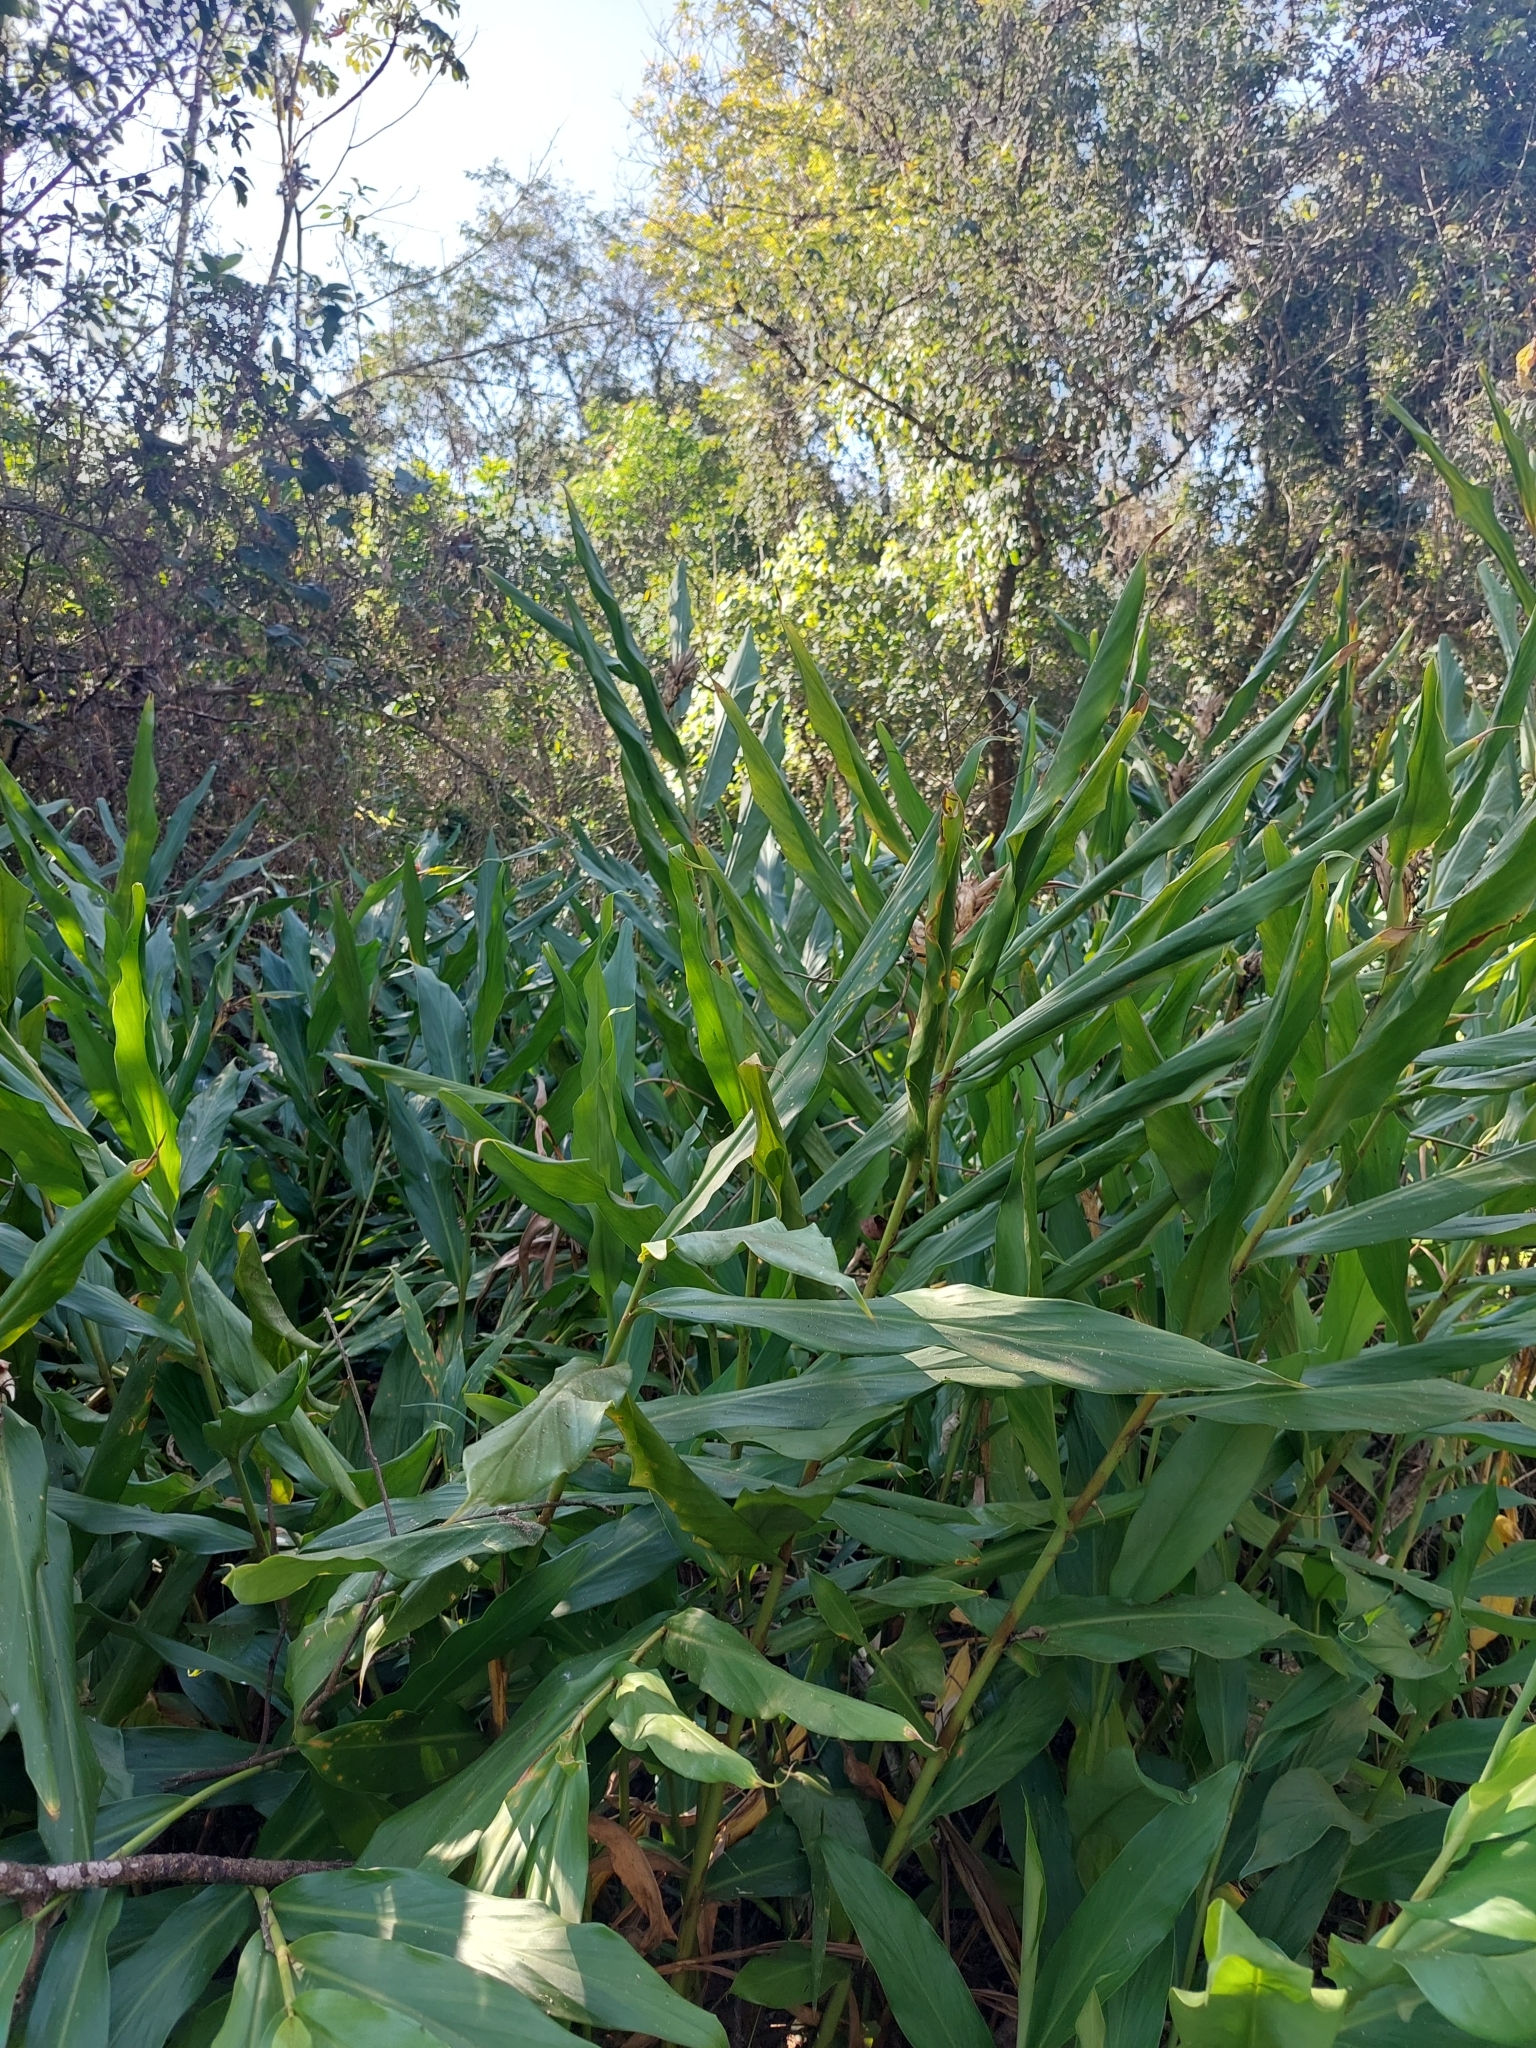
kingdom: Plantae
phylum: Tracheophyta
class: Liliopsida
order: Zingiberales
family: Zingiberaceae
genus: Hedychium
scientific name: Hedychium coronarium
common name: White garland-lily
